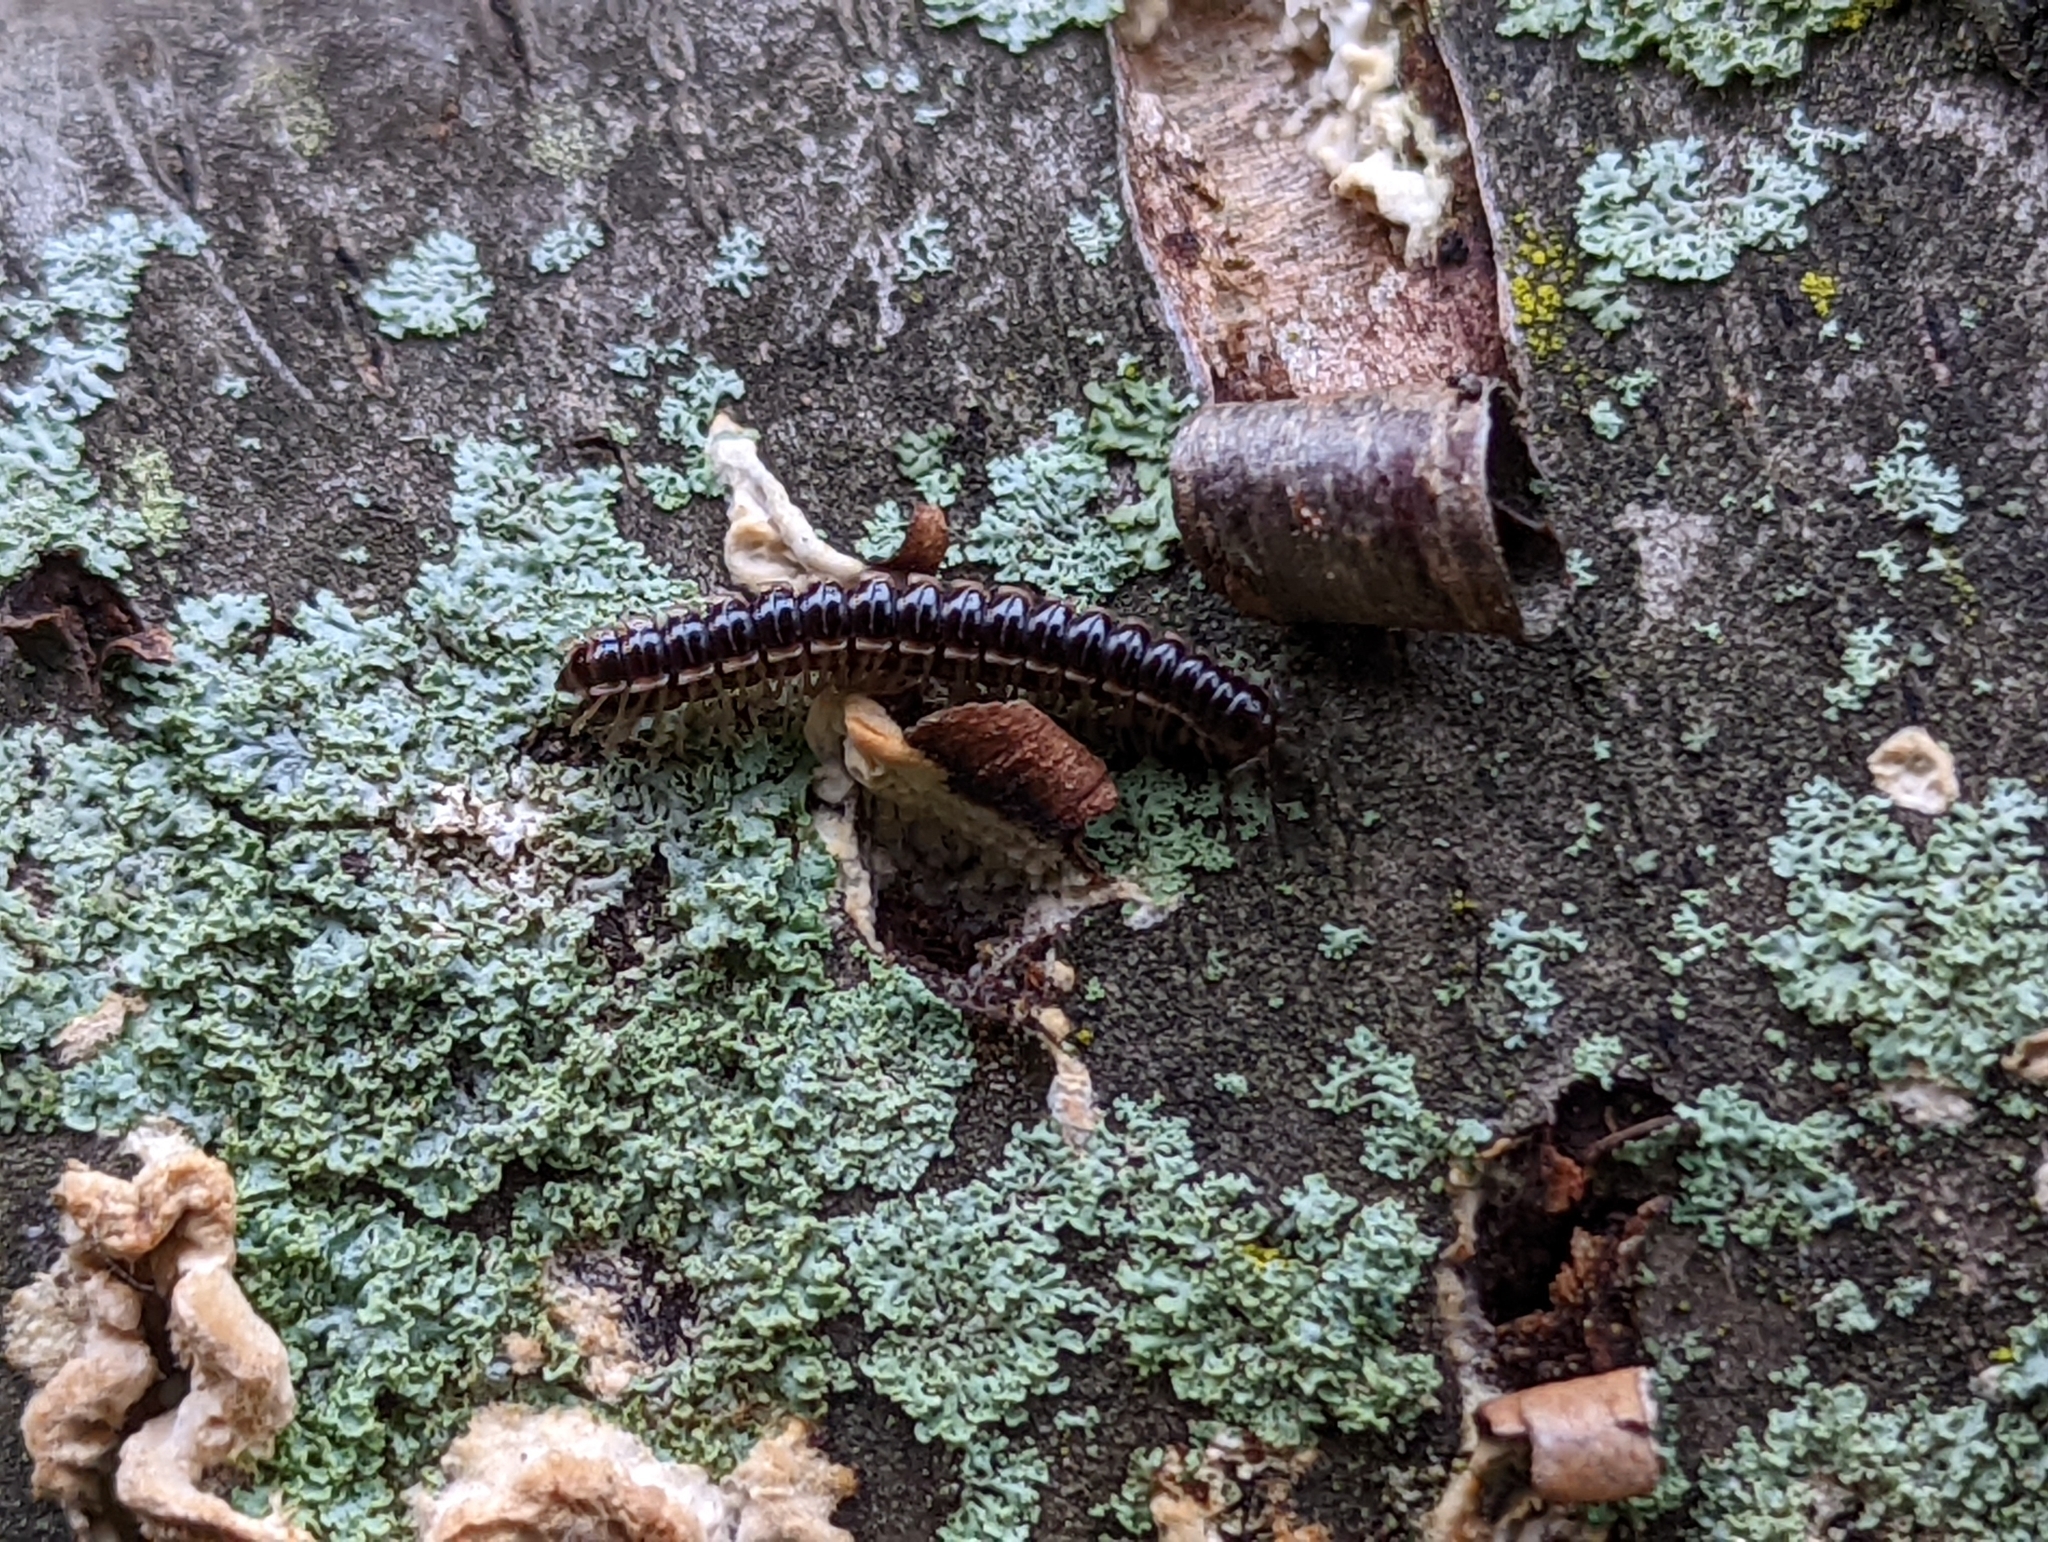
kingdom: Animalia
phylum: Arthropoda
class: Diplopoda
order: Polydesmida
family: Paradoxosomatidae
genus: Oxidus
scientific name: Oxidus gracilis
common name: Greenhouse millipede
